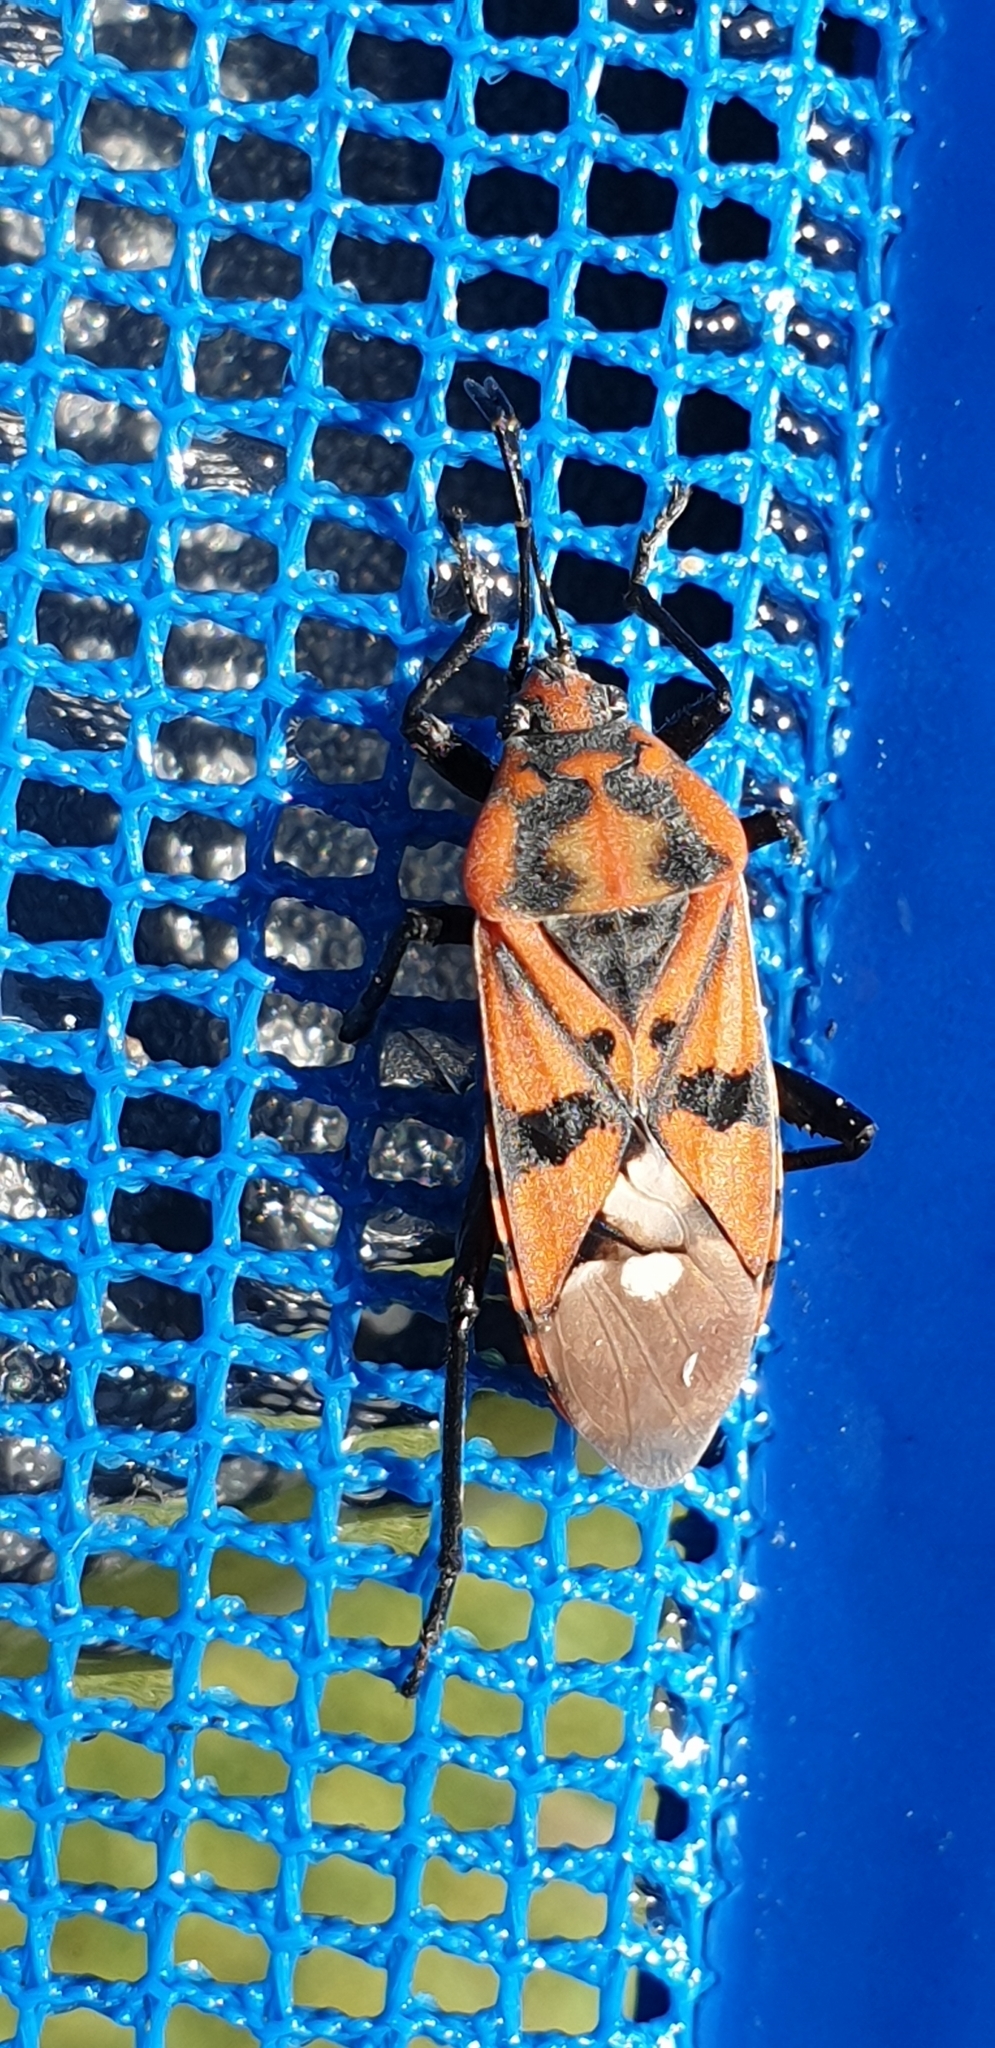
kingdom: Animalia
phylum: Arthropoda
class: Insecta
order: Hemiptera
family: Lygaeidae
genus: Spilostethus
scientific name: Spilostethus pandurus
